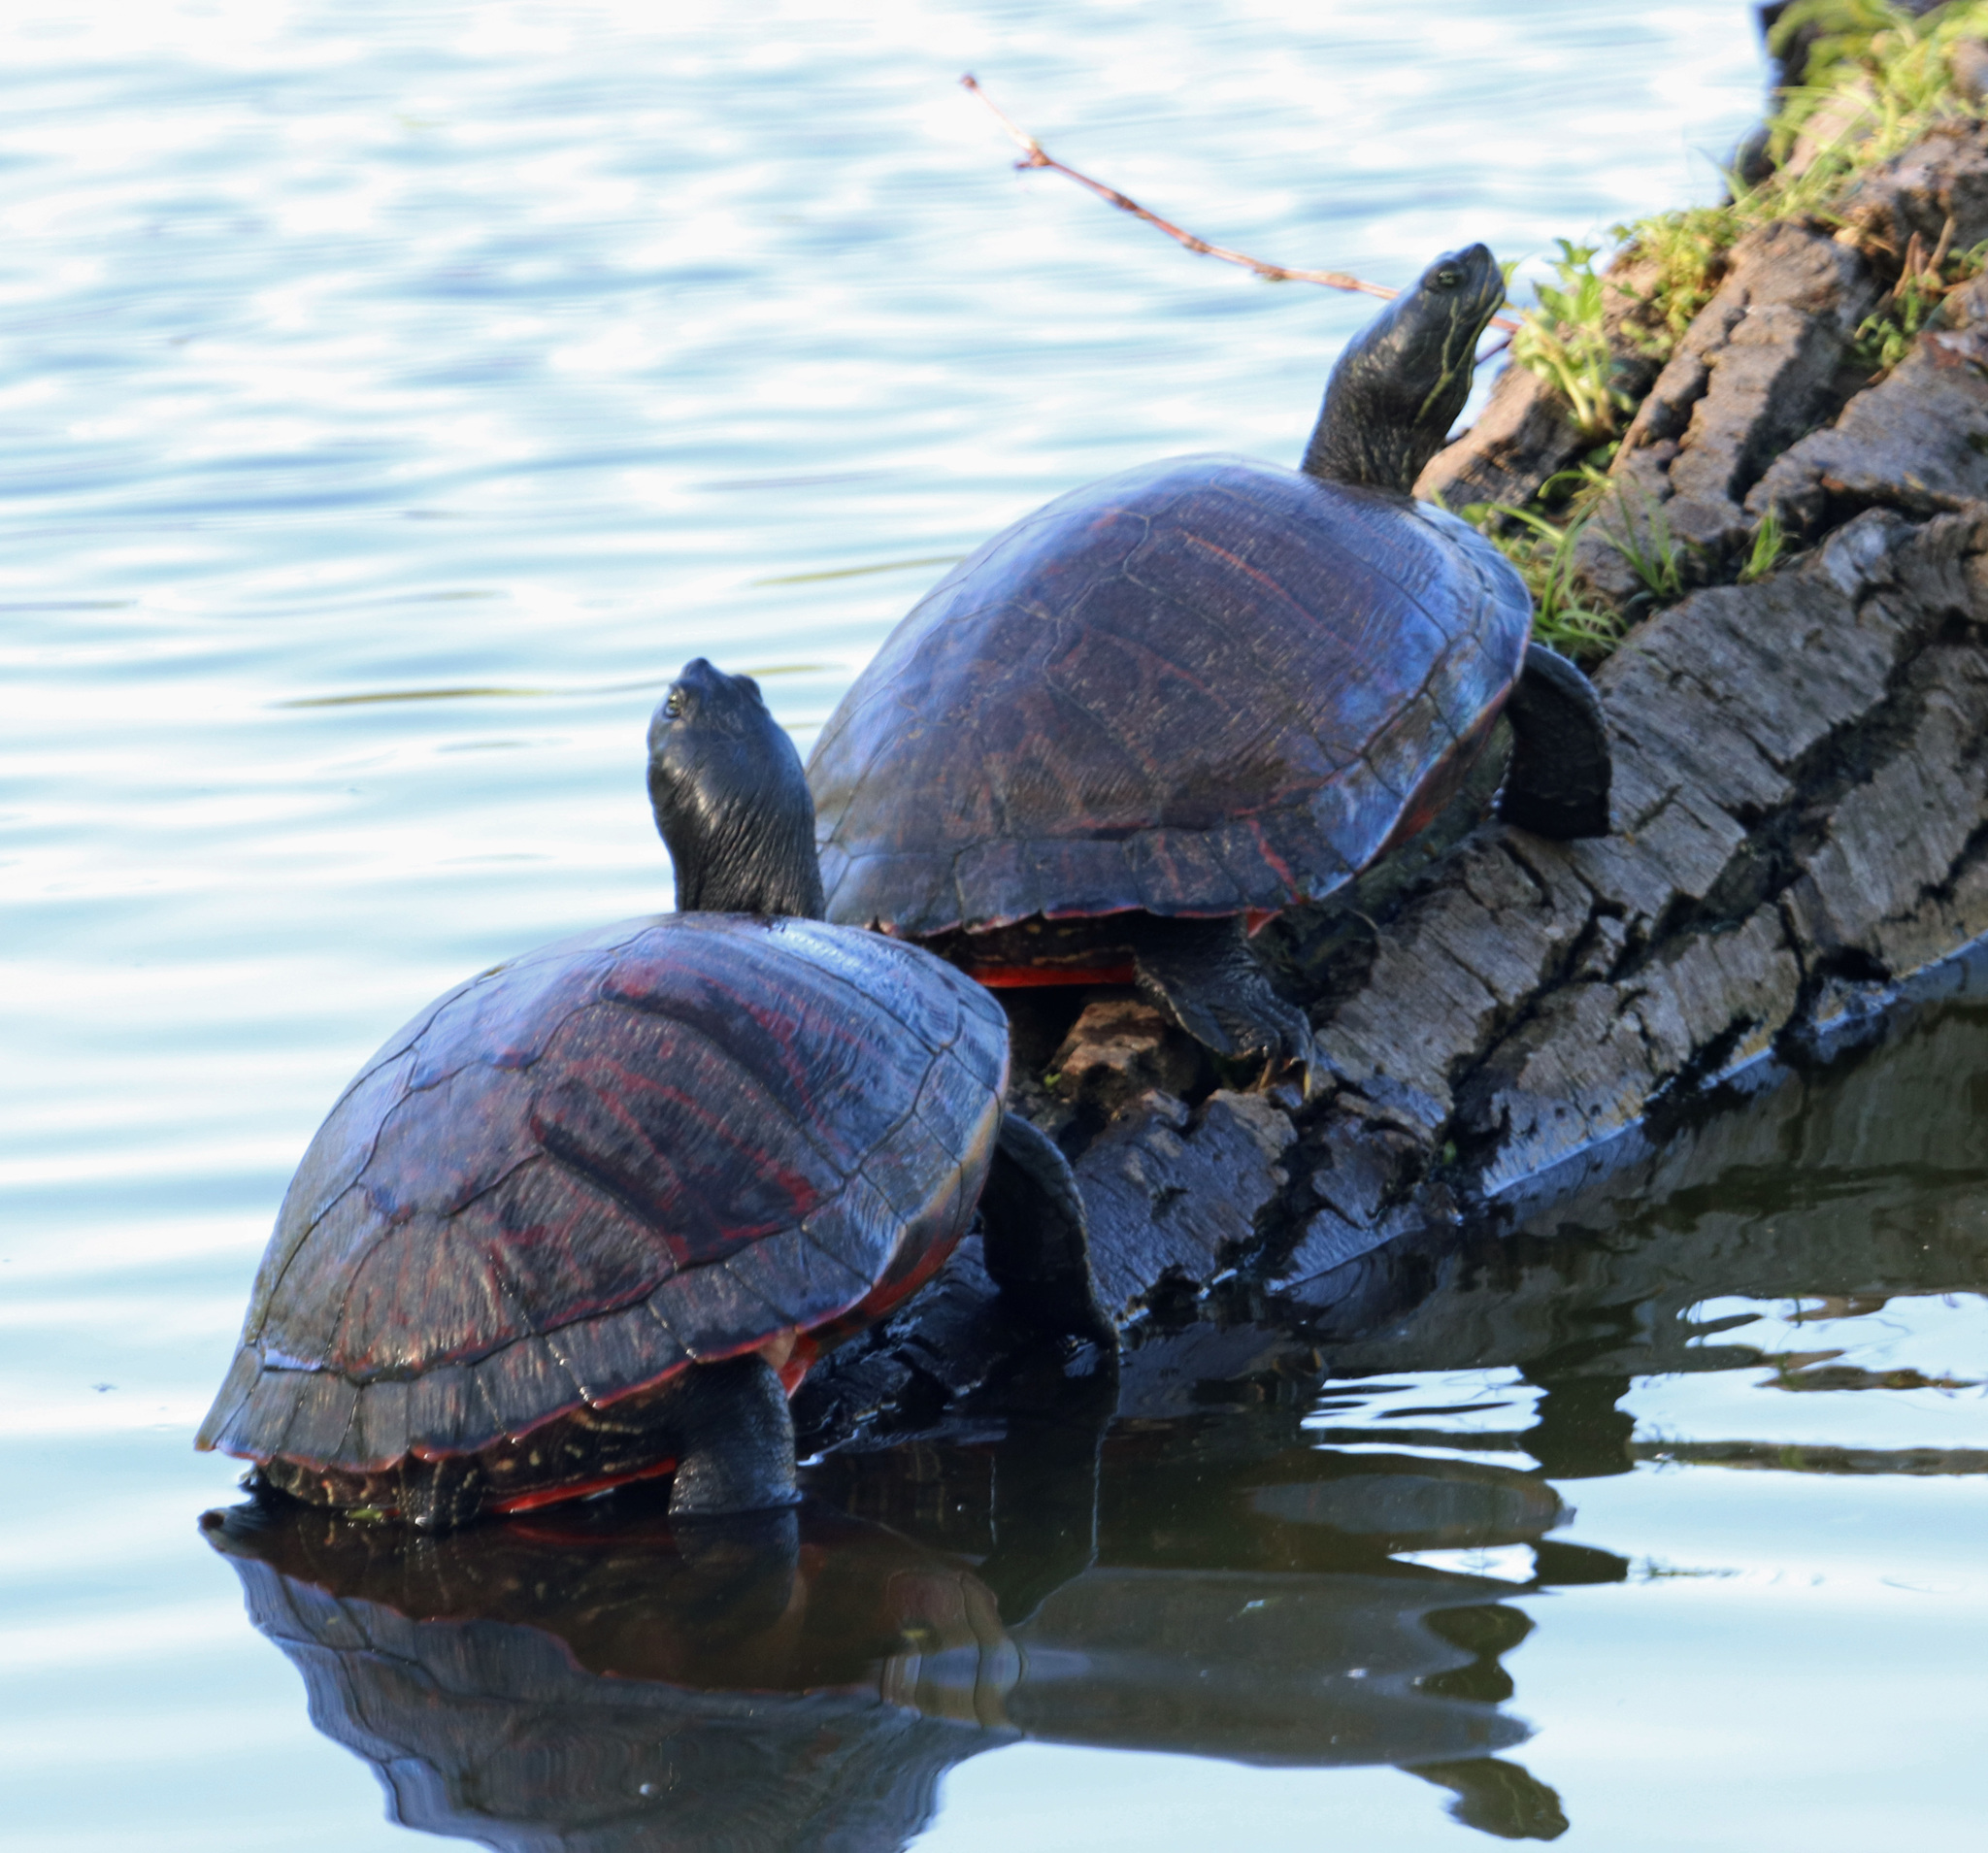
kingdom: Animalia
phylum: Chordata
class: Testudines
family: Emydidae
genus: Pseudemys
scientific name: Pseudemys rubriventris
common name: American red-bellied turtle
